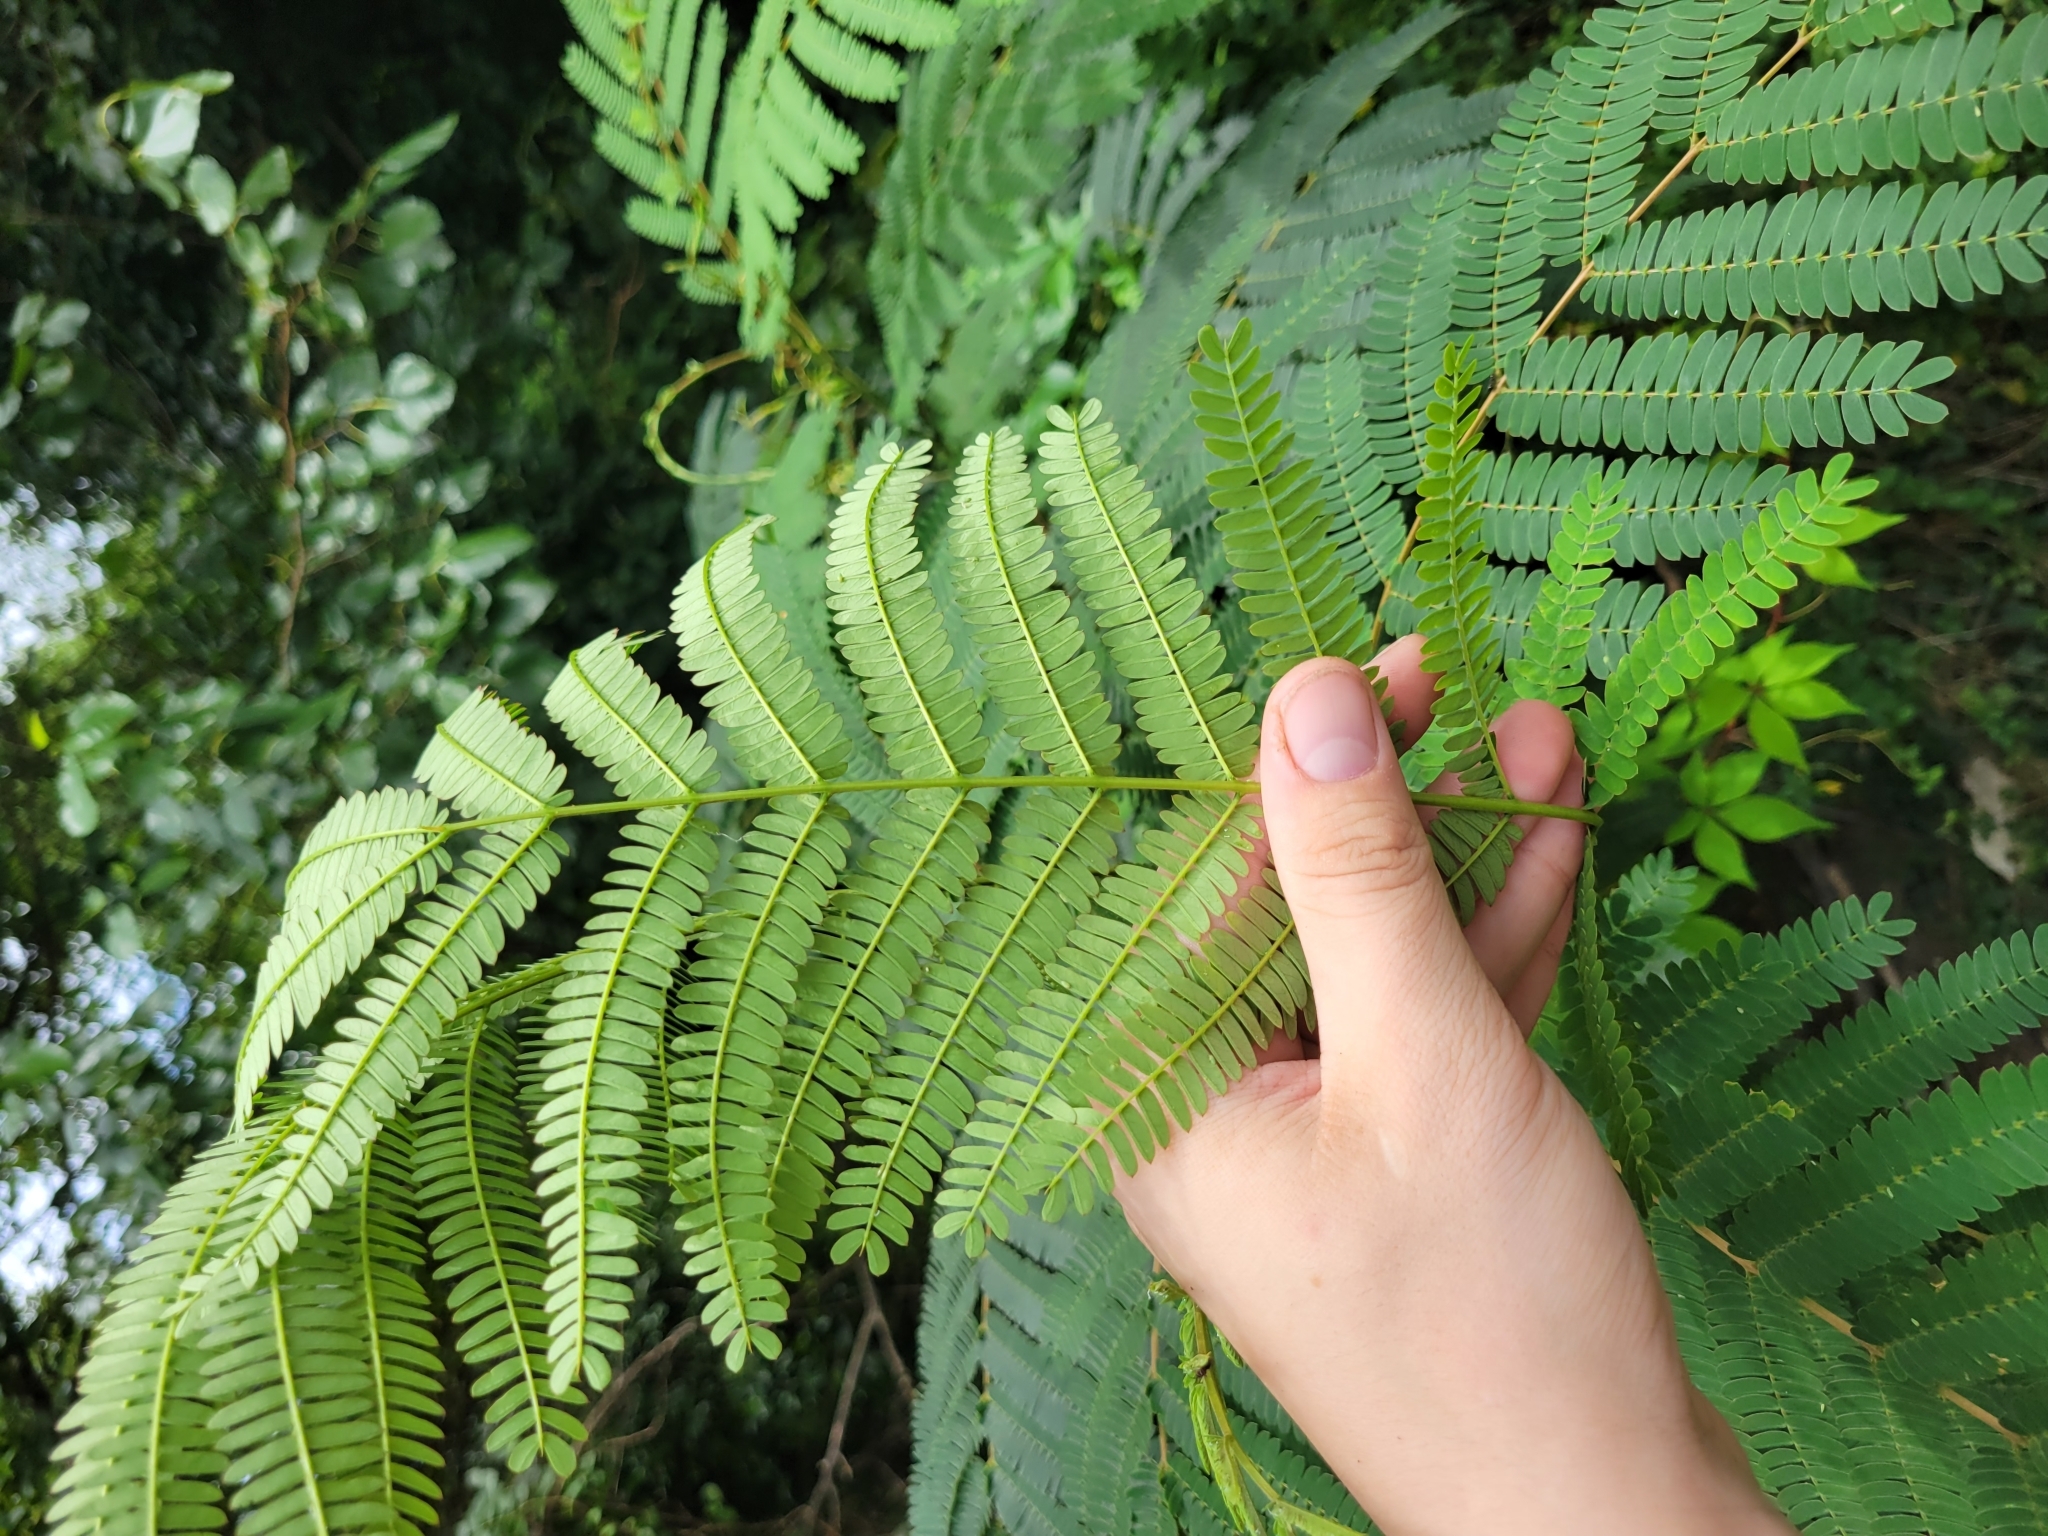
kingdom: Plantae
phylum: Tracheophyta
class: Magnoliopsida
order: Fabales
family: Fabaceae
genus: Albizia
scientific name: Albizia julibrissin
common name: Silktree
